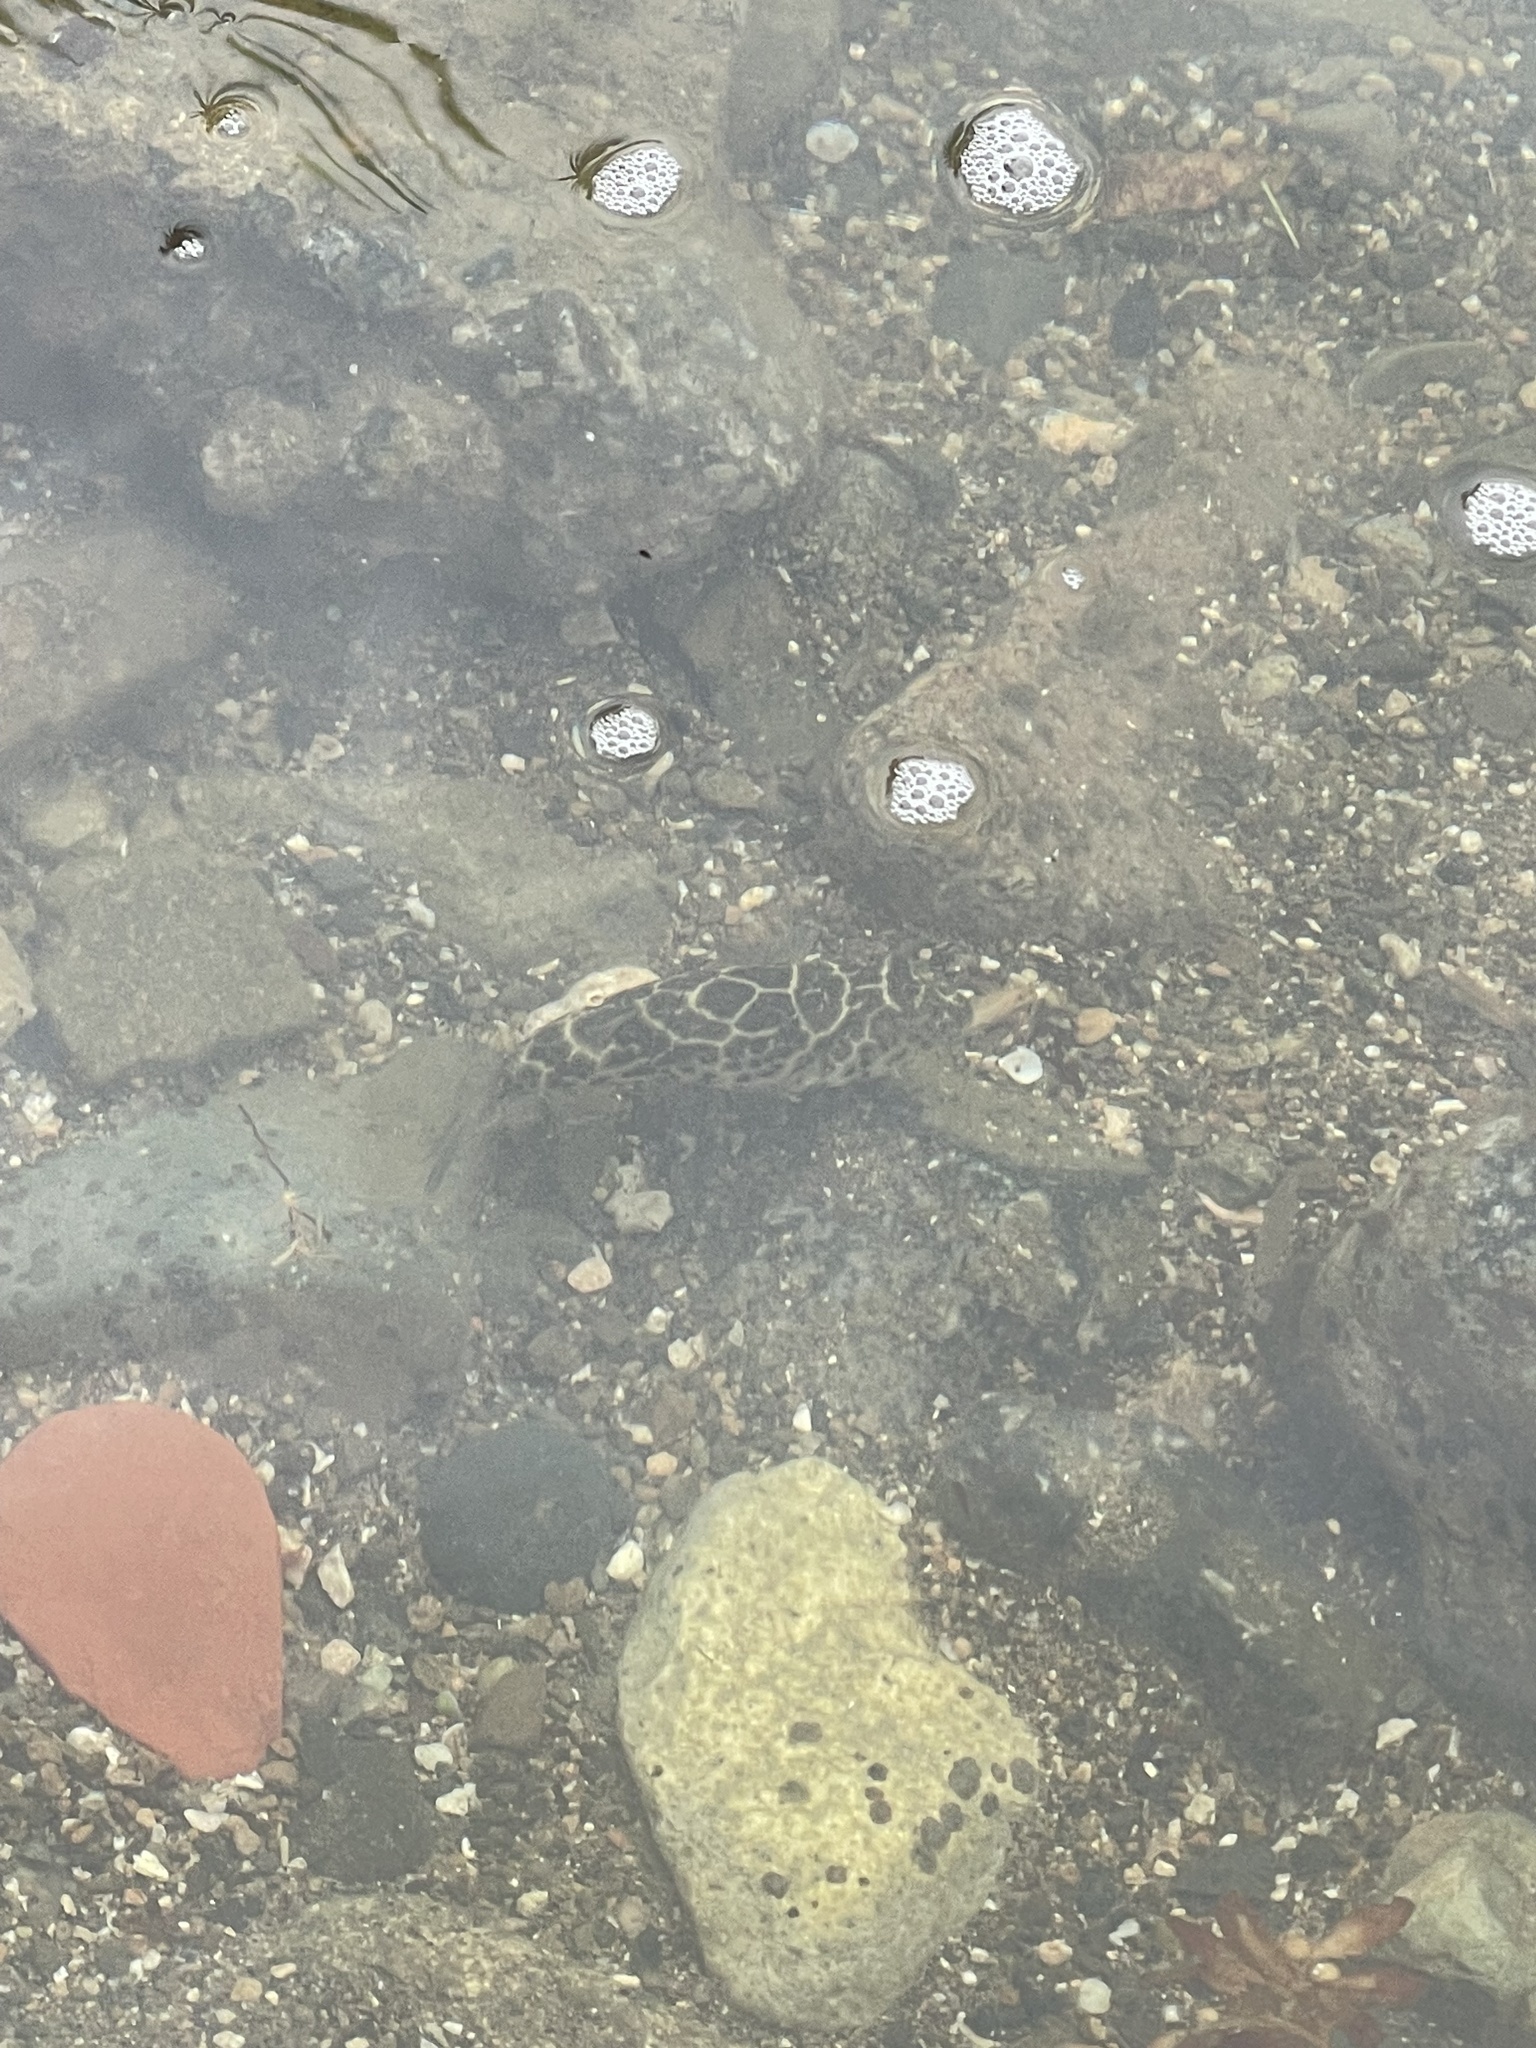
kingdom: Animalia
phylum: Chordata
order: Tetraodontiformes
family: Tetraodontidae
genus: Sphoeroides
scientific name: Sphoeroides testudineus
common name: Checkered puffer
